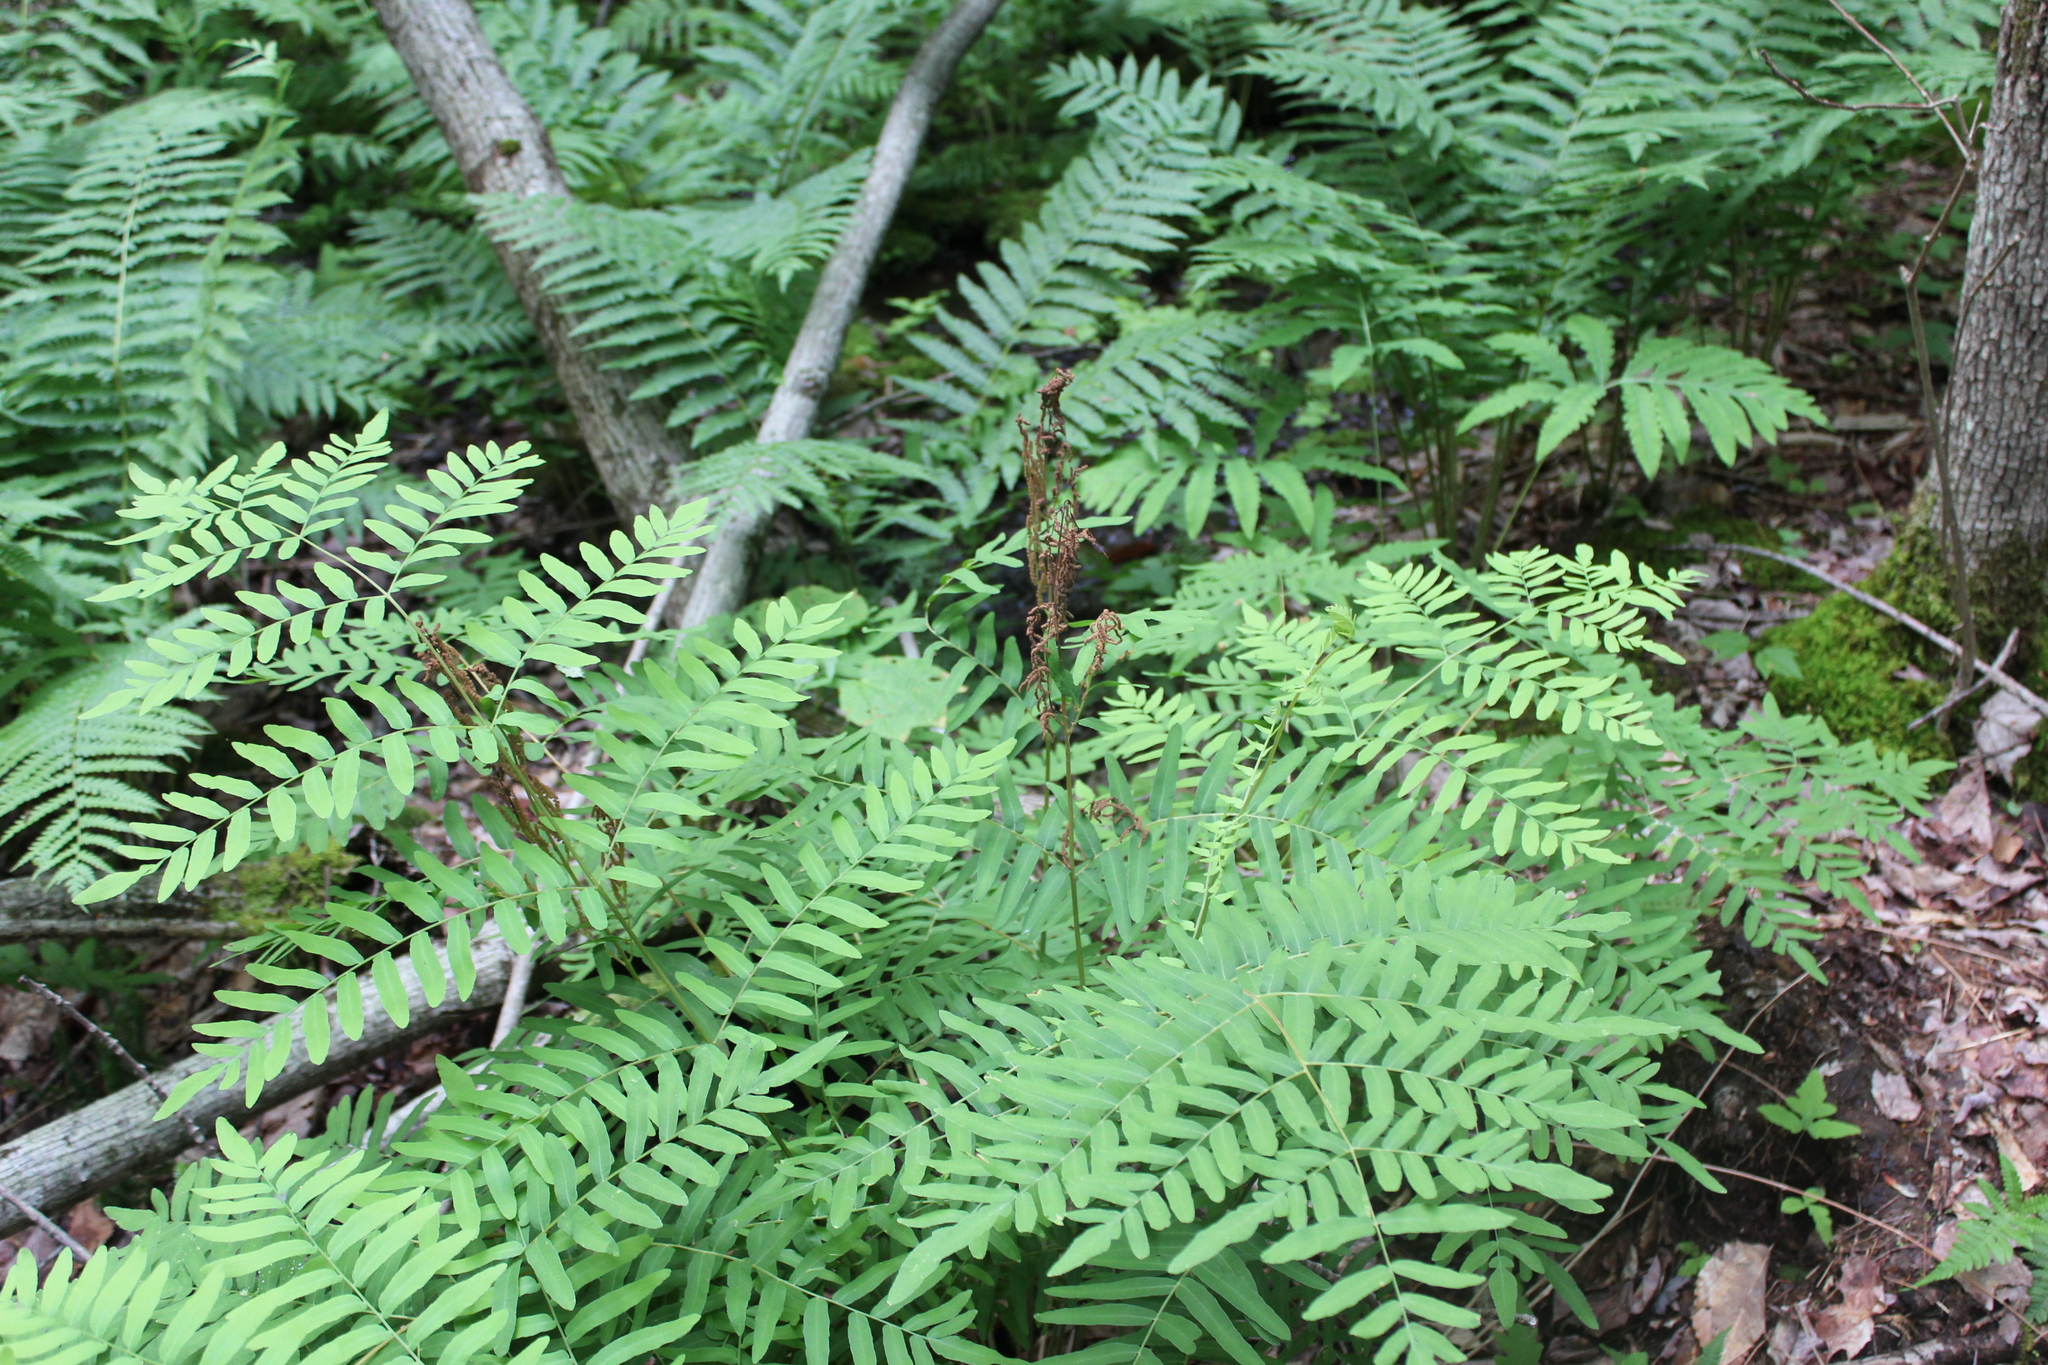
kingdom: Plantae
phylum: Tracheophyta
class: Polypodiopsida
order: Osmundales
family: Osmundaceae
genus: Osmunda
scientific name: Osmunda spectabilis
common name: American royal fern
